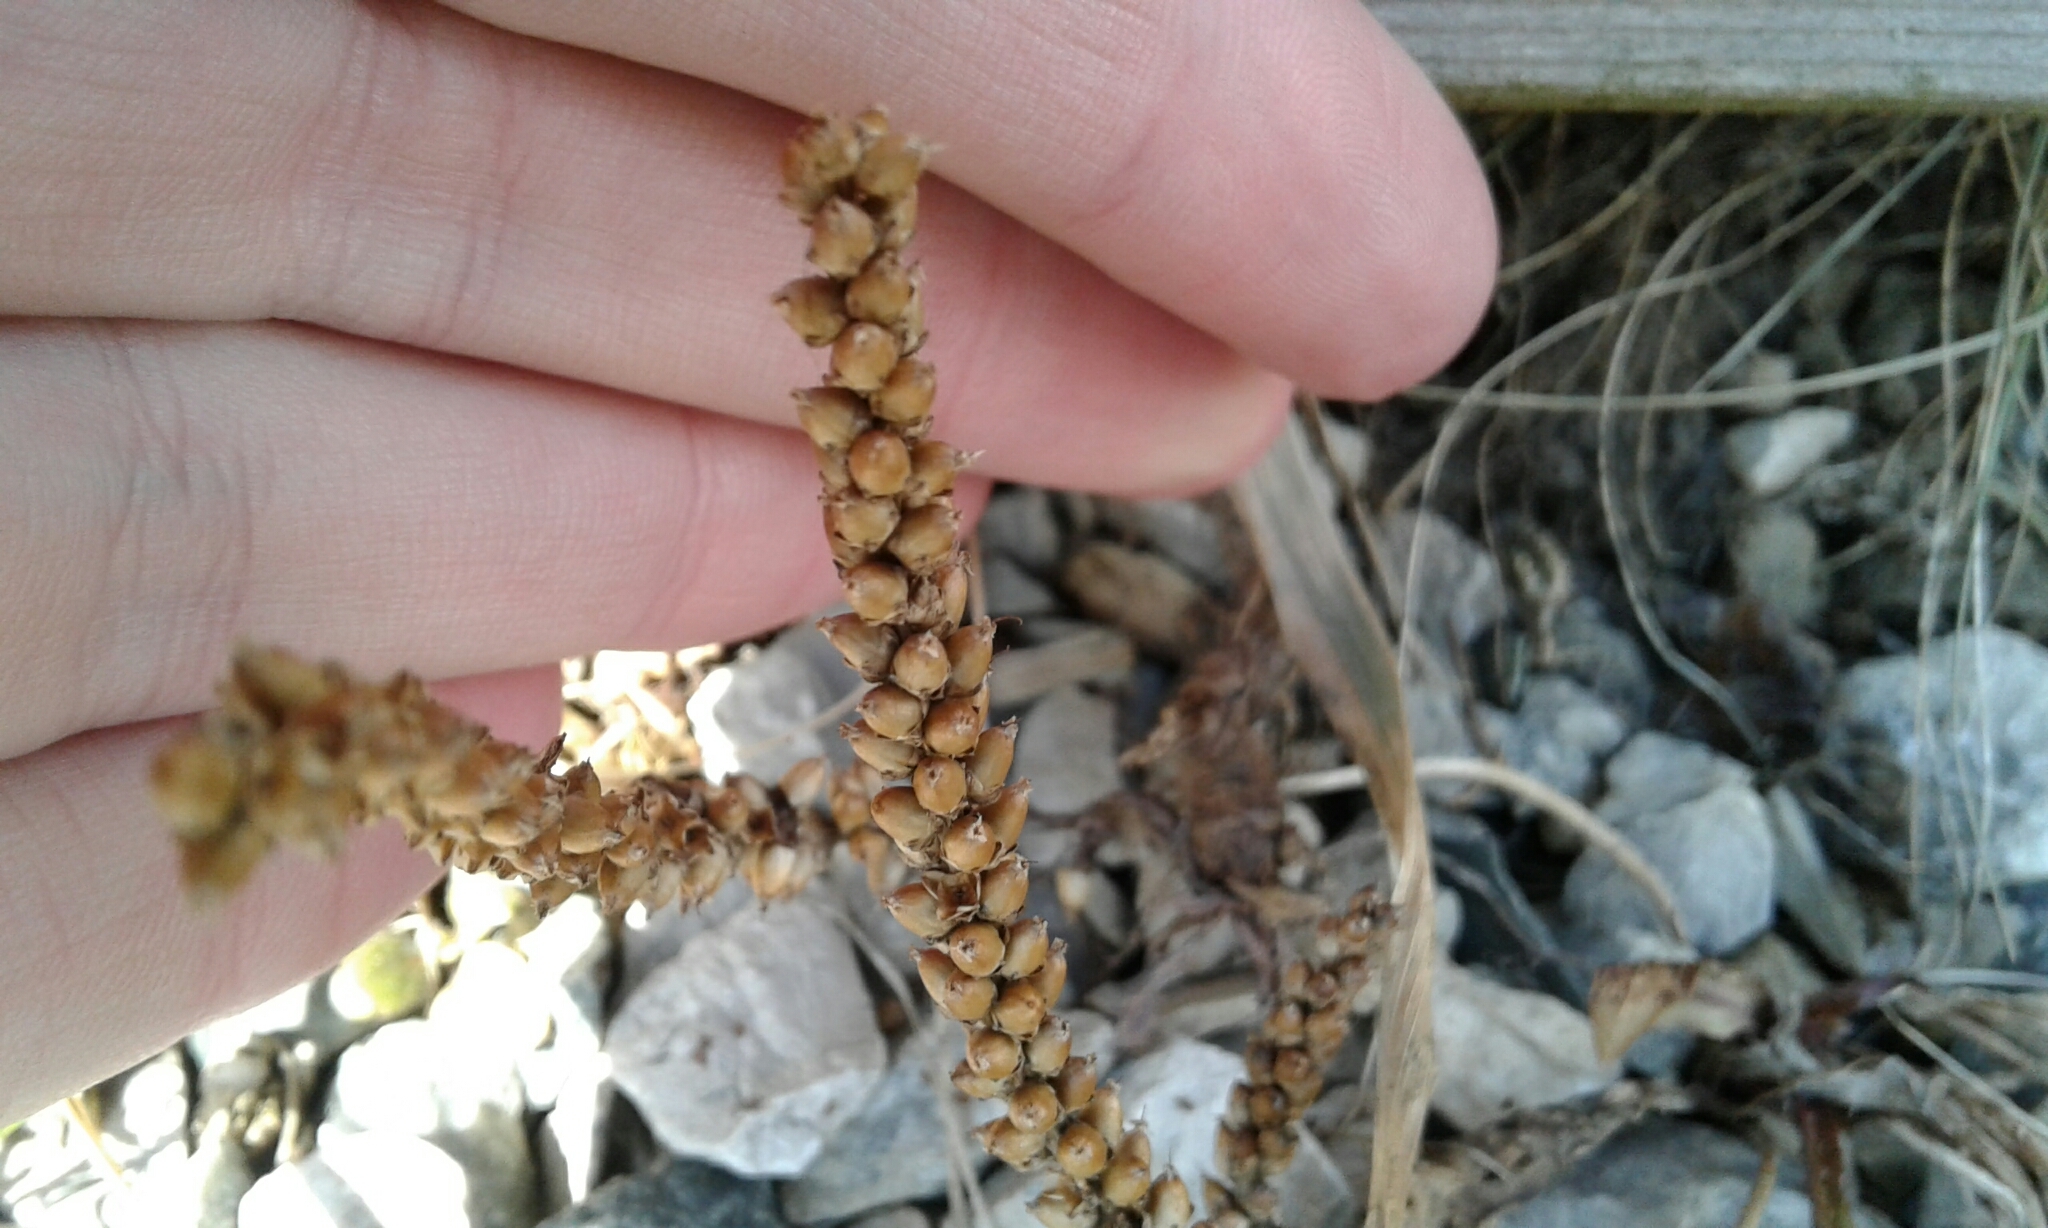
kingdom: Plantae
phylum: Tracheophyta
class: Magnoliopsida
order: Lamiales
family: Plantaginaceae
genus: Plantago
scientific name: Plantago major
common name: Common plantain
